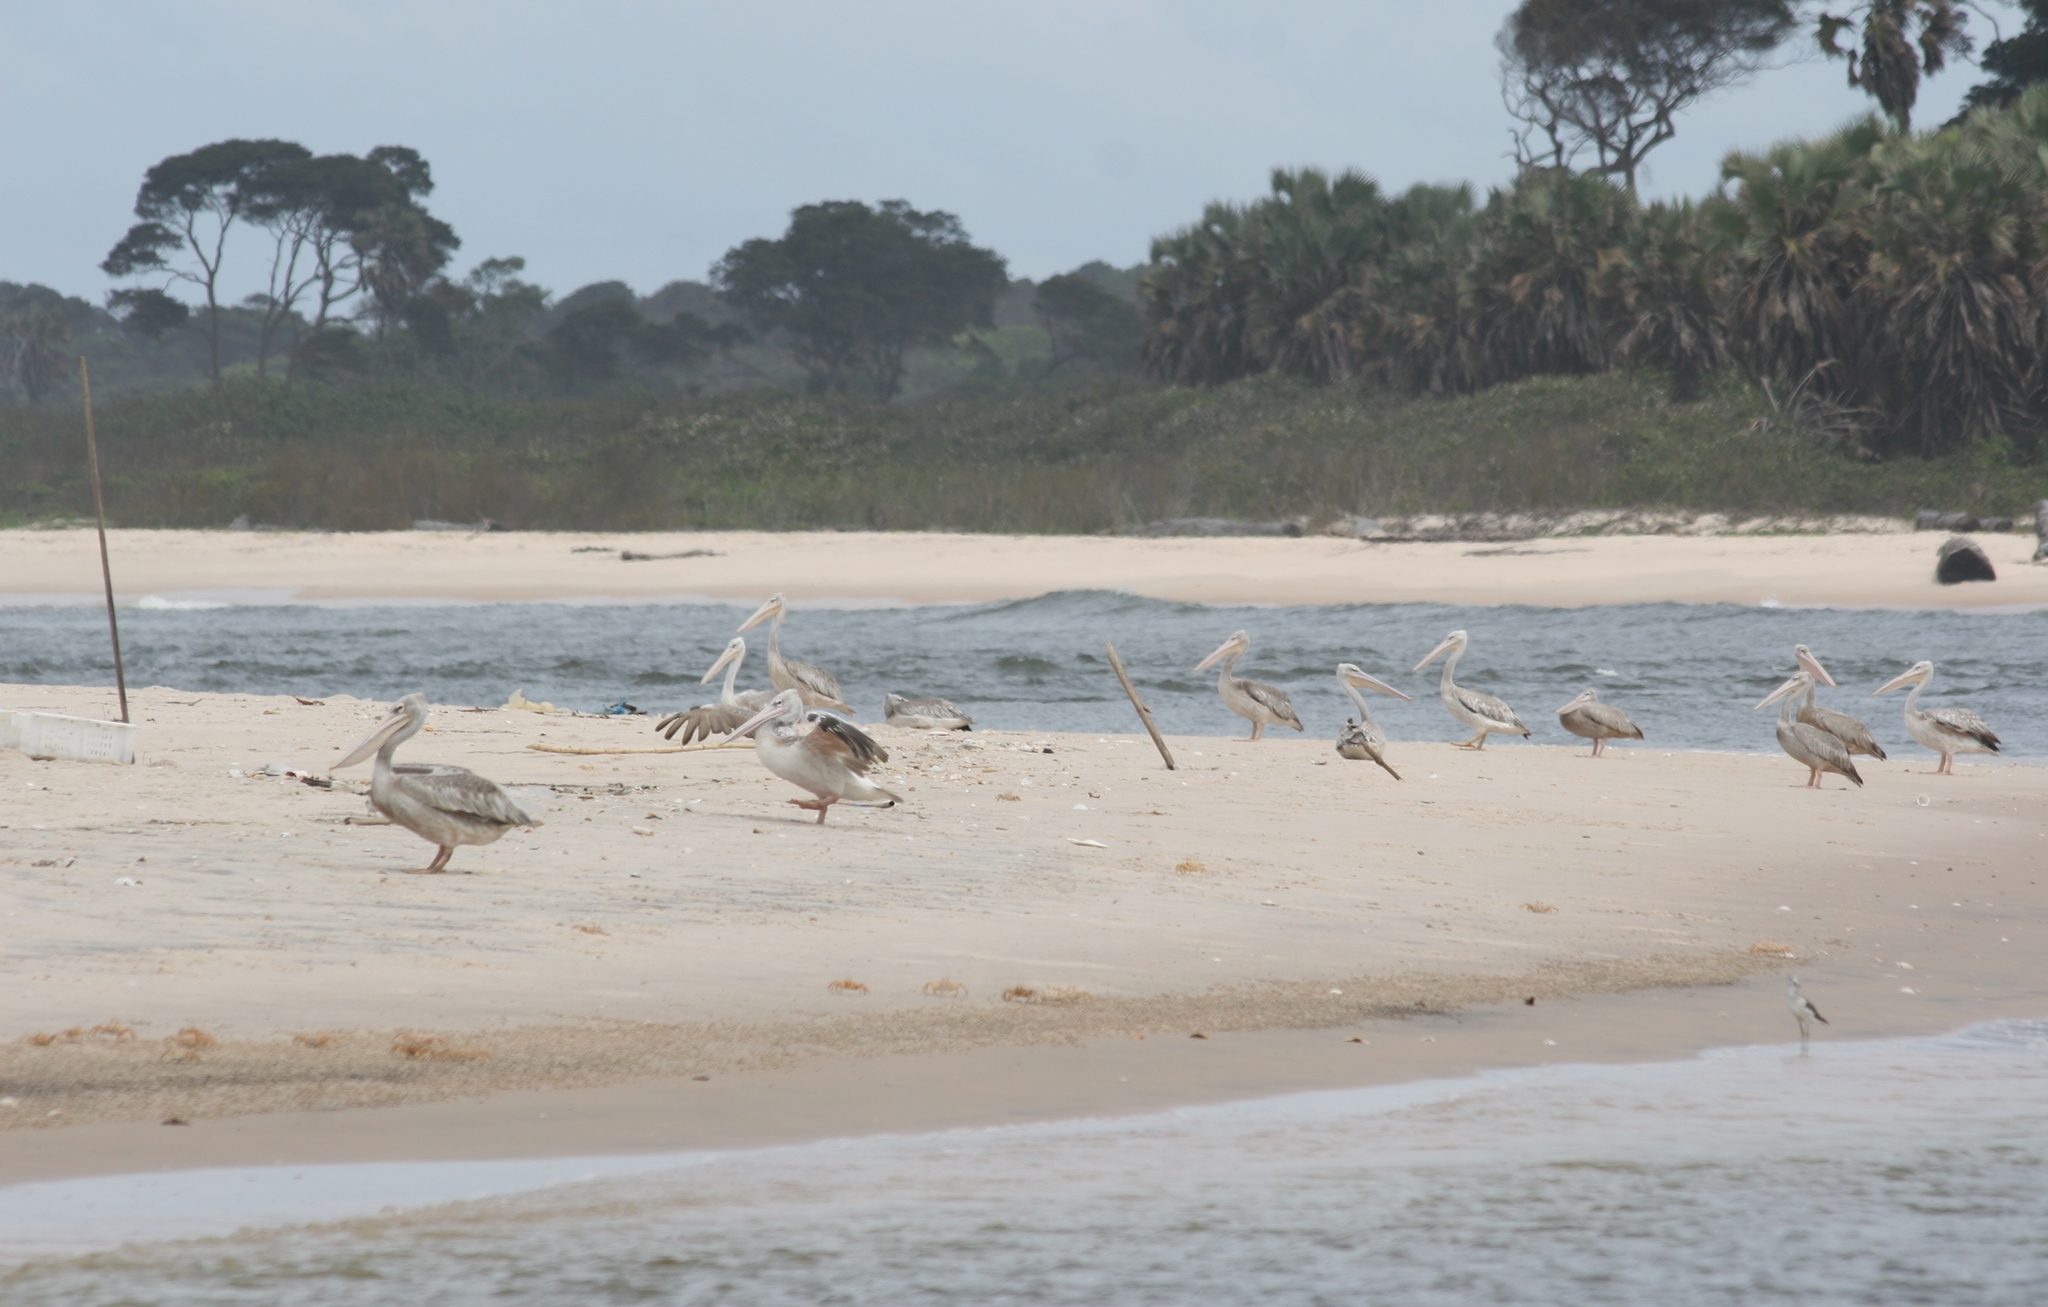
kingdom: Animalia
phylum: Chordata
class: Aves
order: Pelecaniformes
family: Pelecanidae
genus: Pelecanus
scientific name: Pelecanus rufescens
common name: Pink-backed pelican
